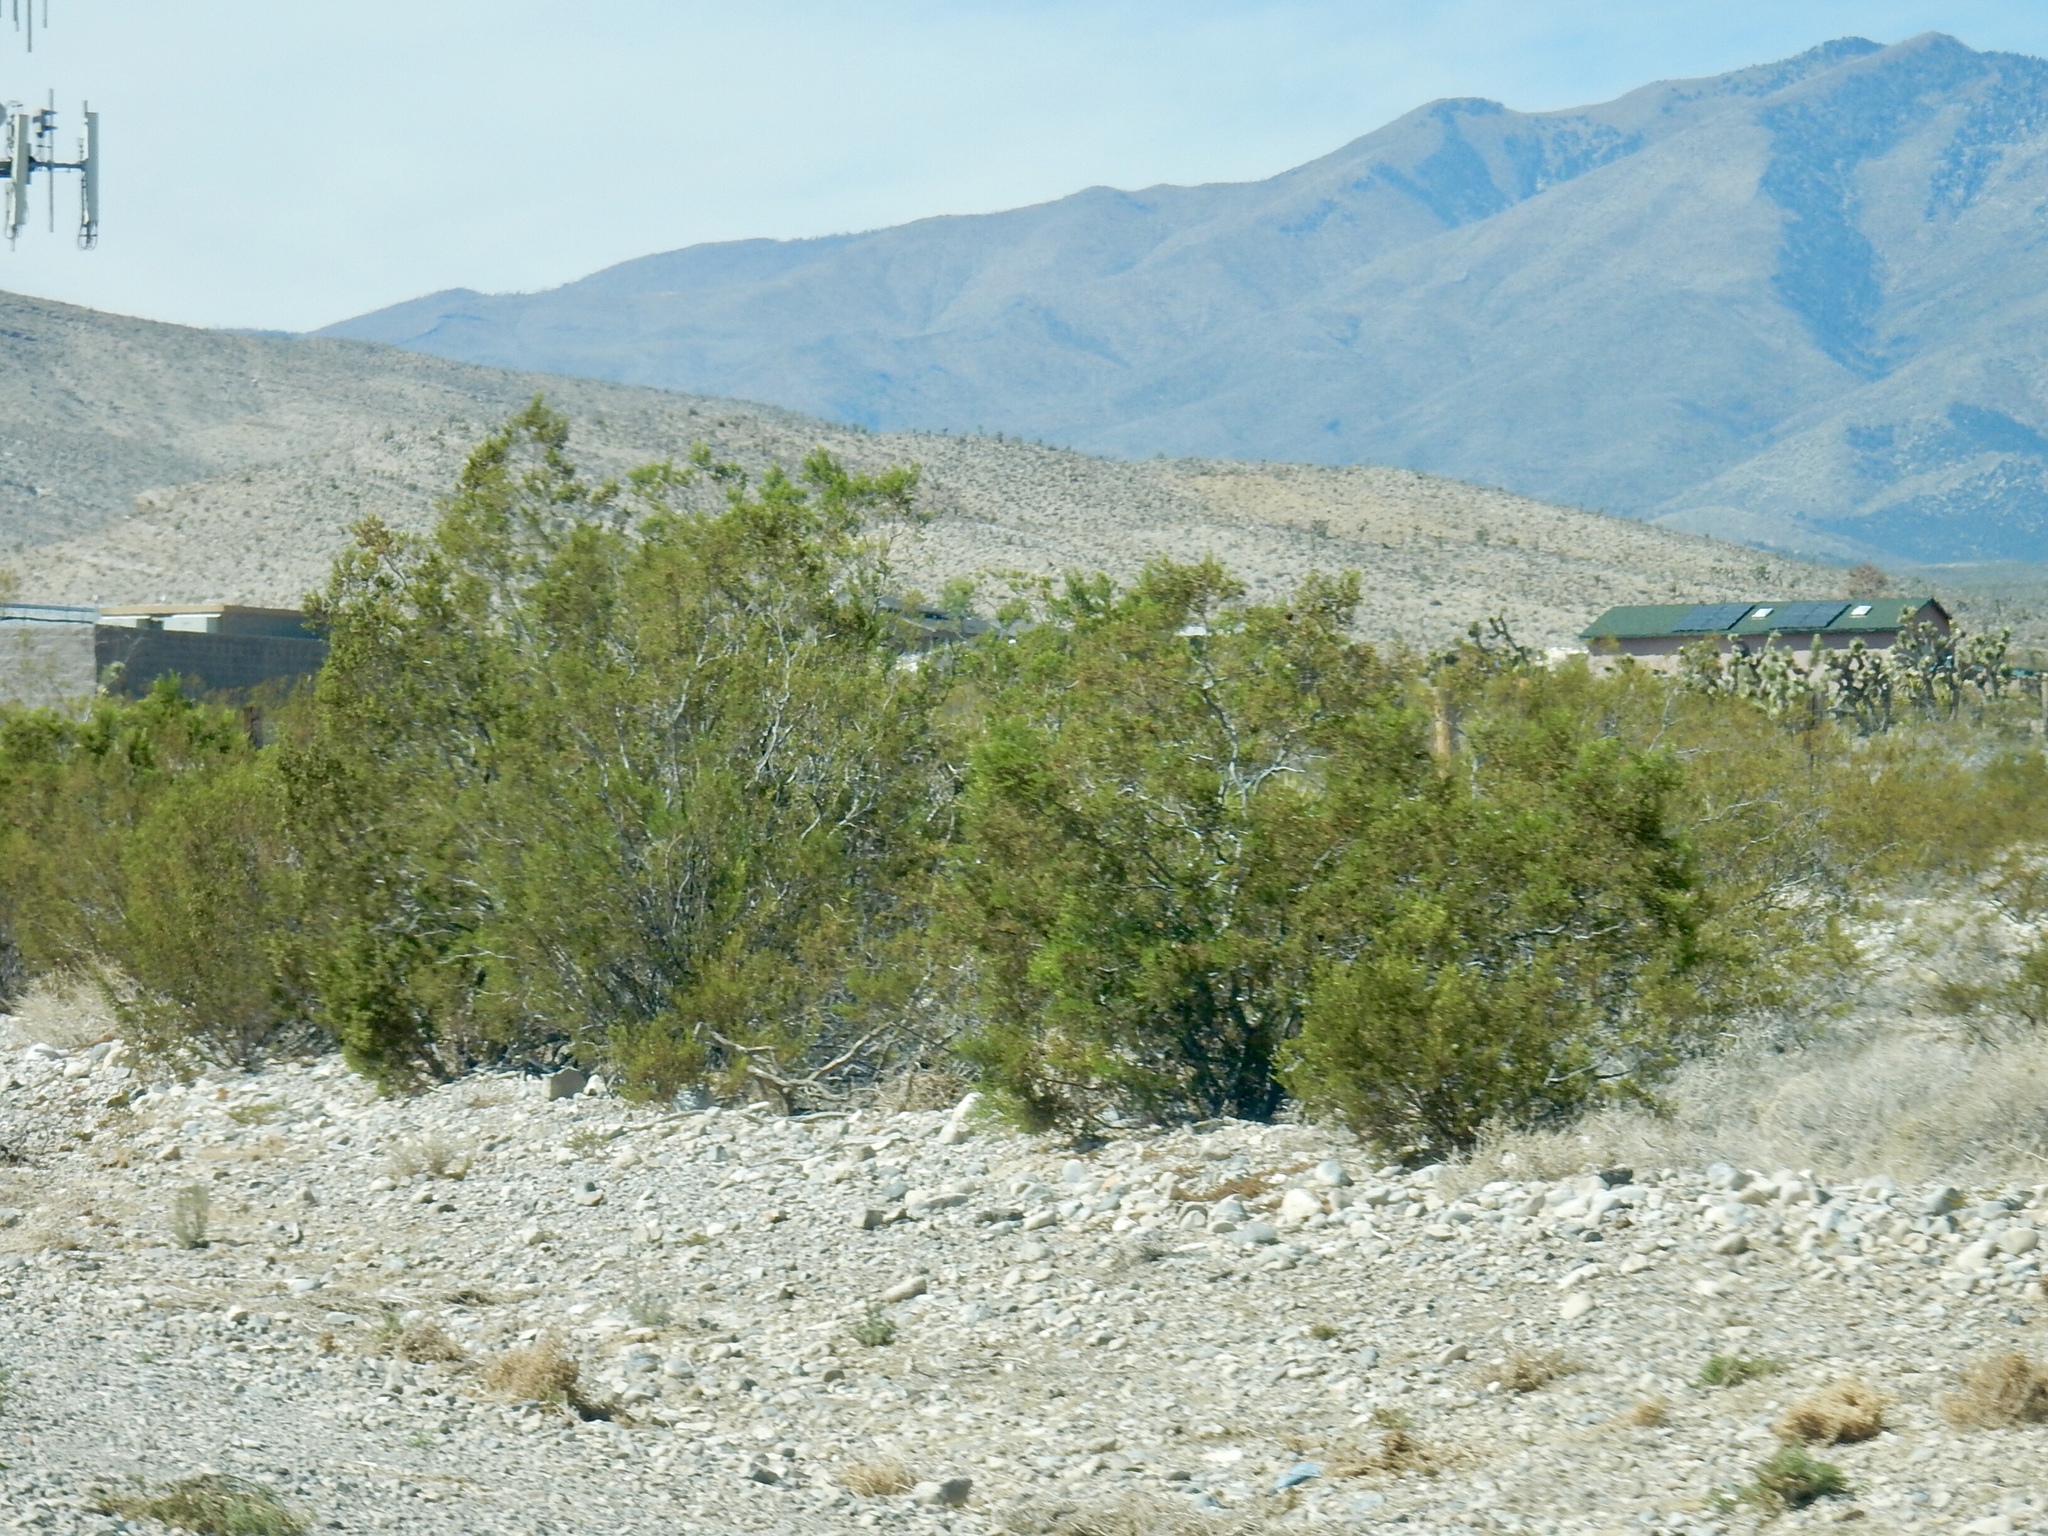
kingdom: Plantae
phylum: Tracheophyta
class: Magnoliopsida
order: Zygophyllales
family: Zygophyllaceae
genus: Larrea
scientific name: Larrea tridentata
